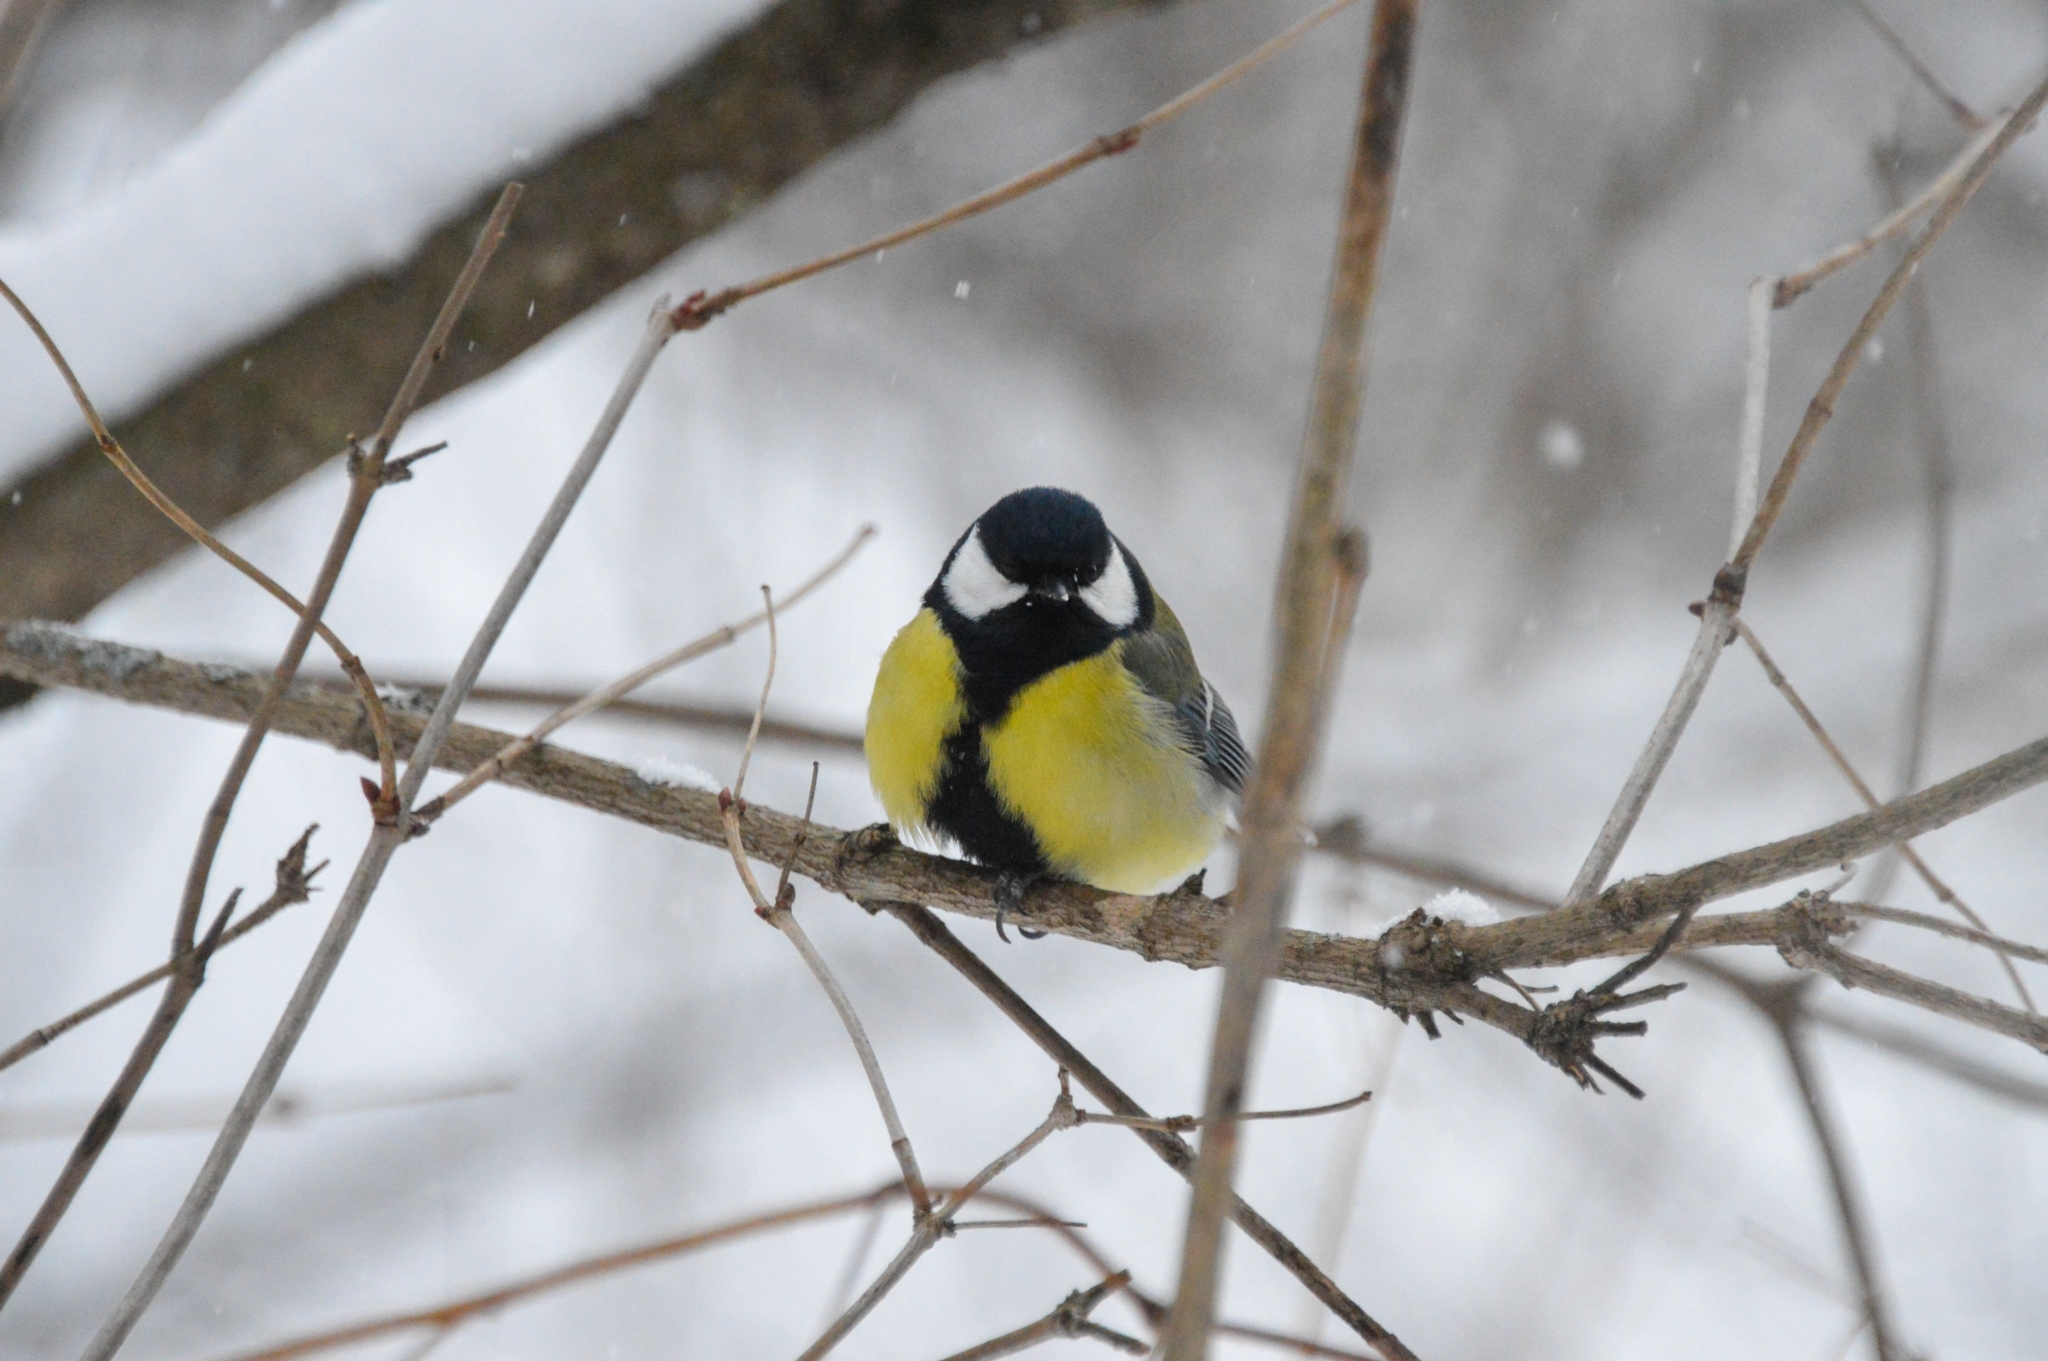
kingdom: Animalia
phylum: Chordata
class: Aves
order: Passeriformes
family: Paridae
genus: Parus
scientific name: Parus major
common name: Great tit
